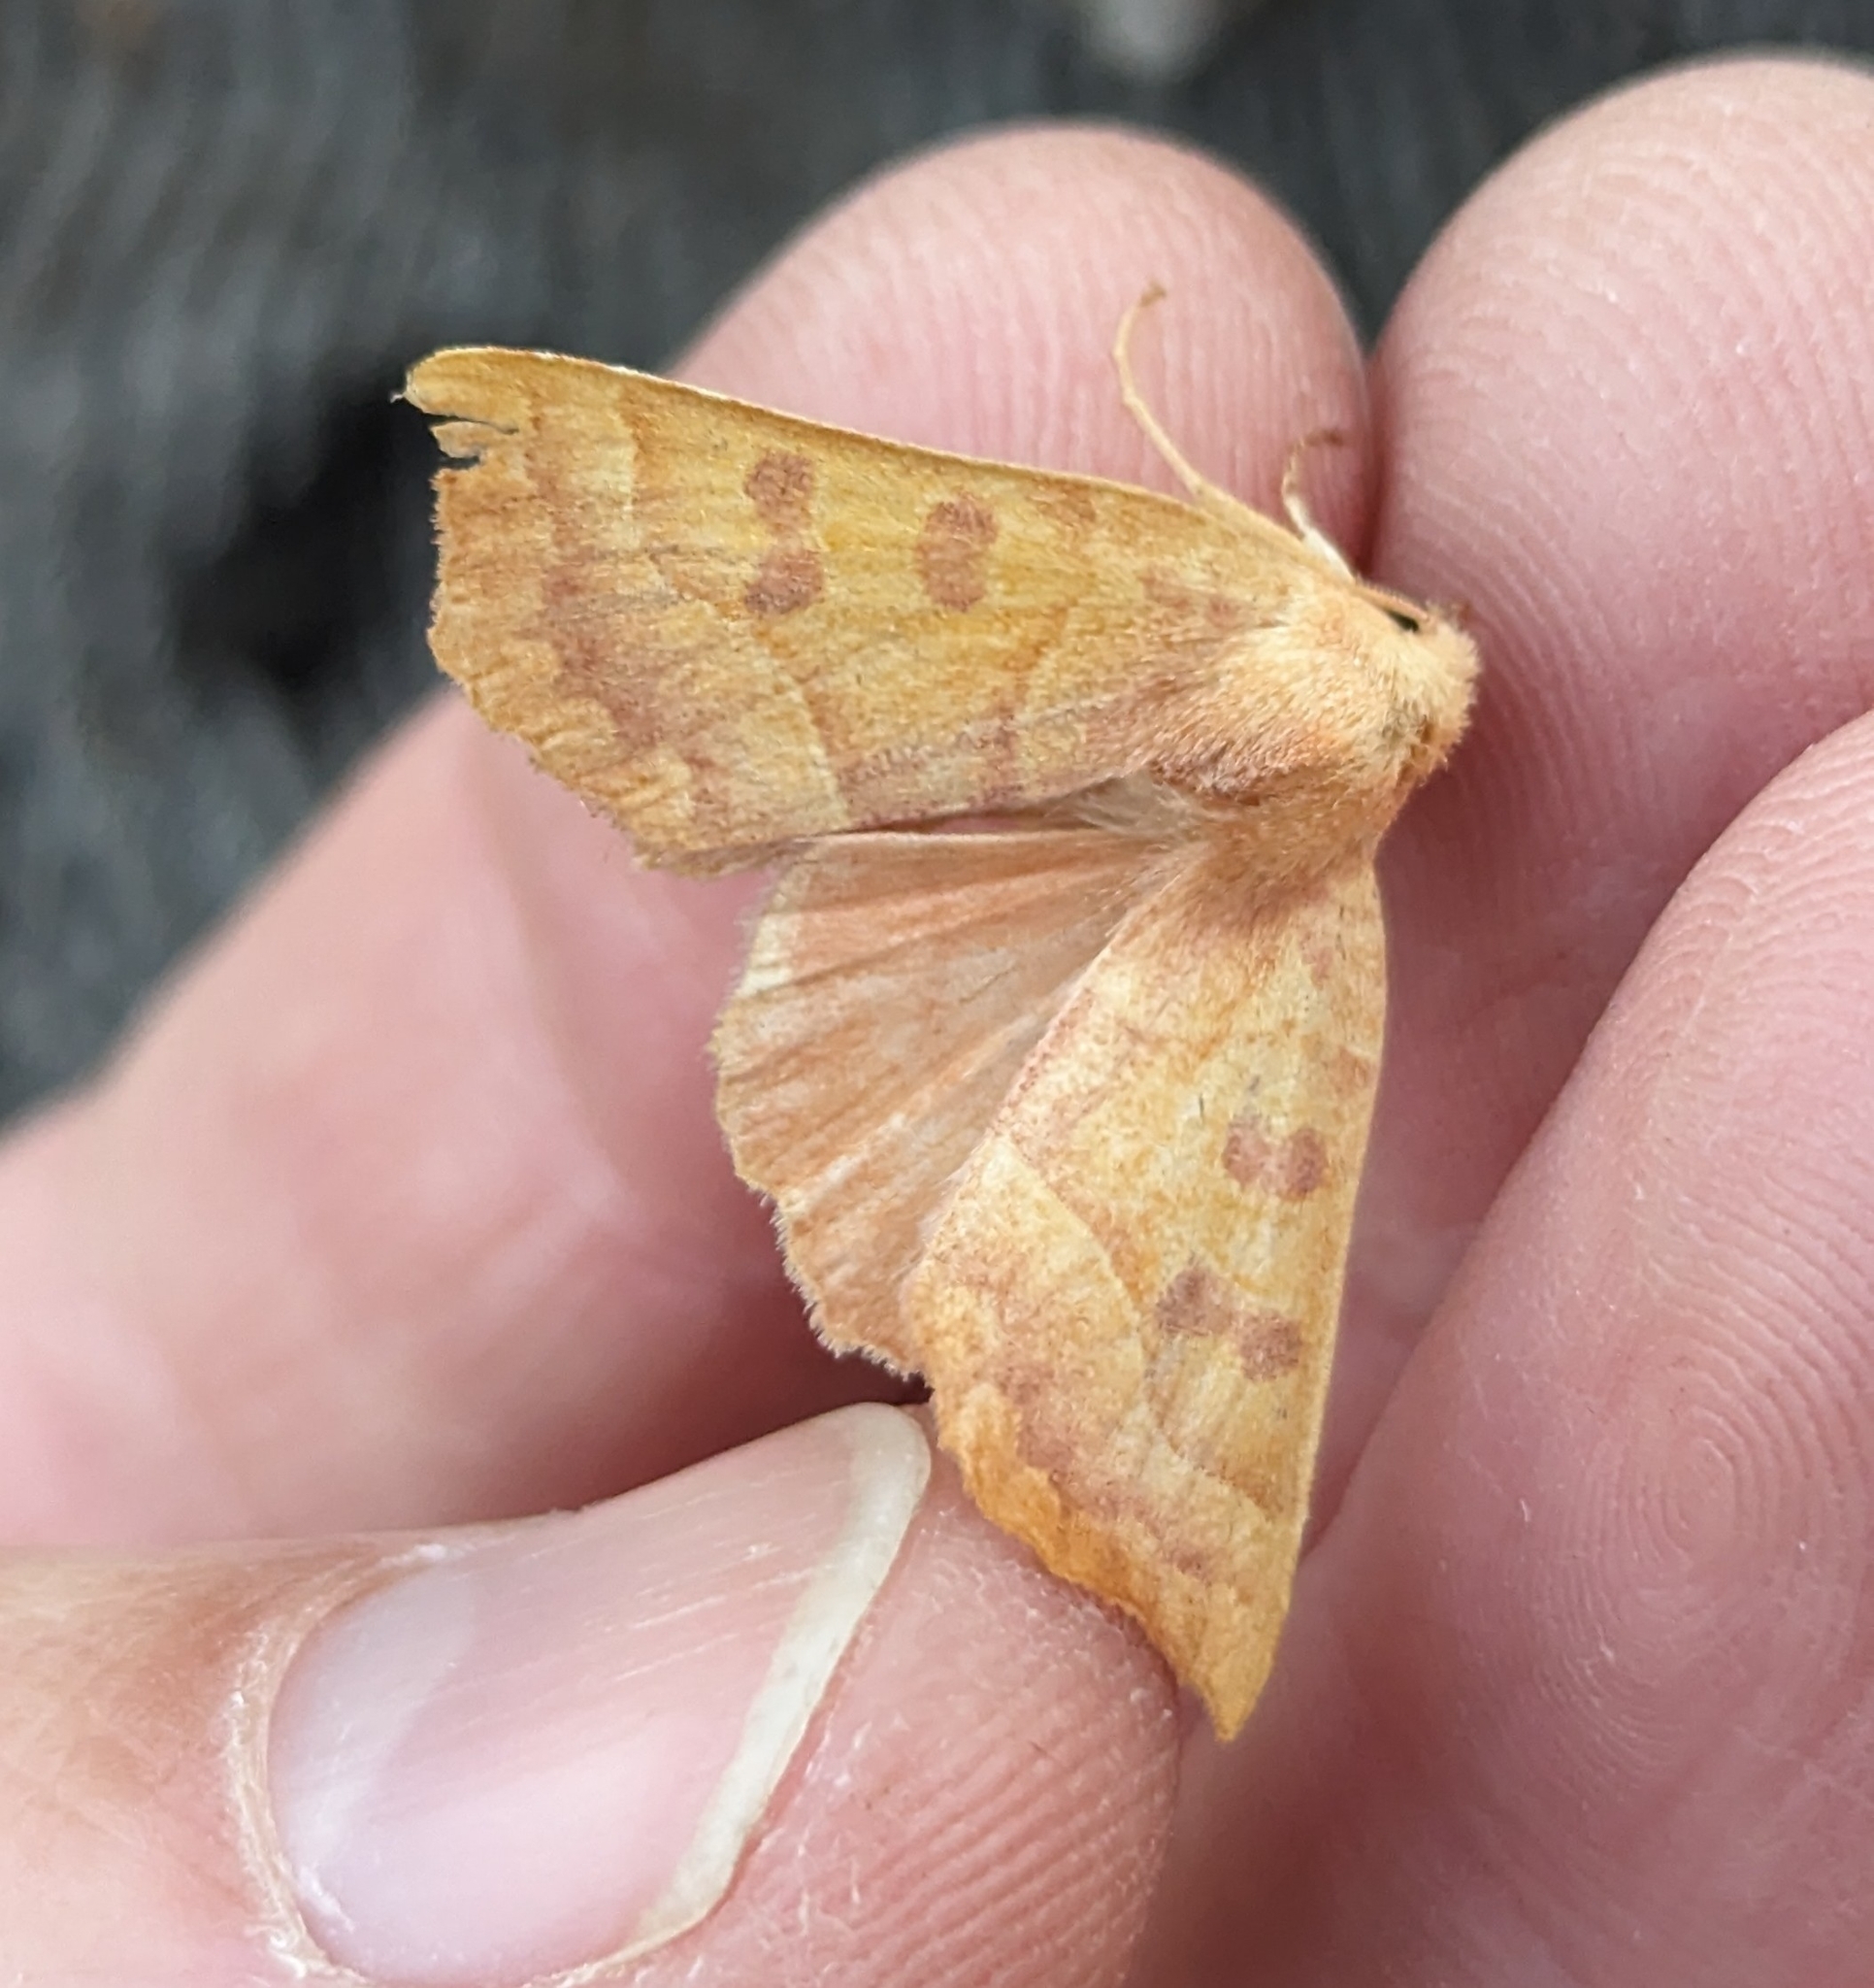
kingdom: Animalia
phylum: Arthropoda
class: Insecta
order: Lepidoptera
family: Noctuidae
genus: Eucirroedia
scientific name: Eucirroedia pampina
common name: Scalloped sallow
